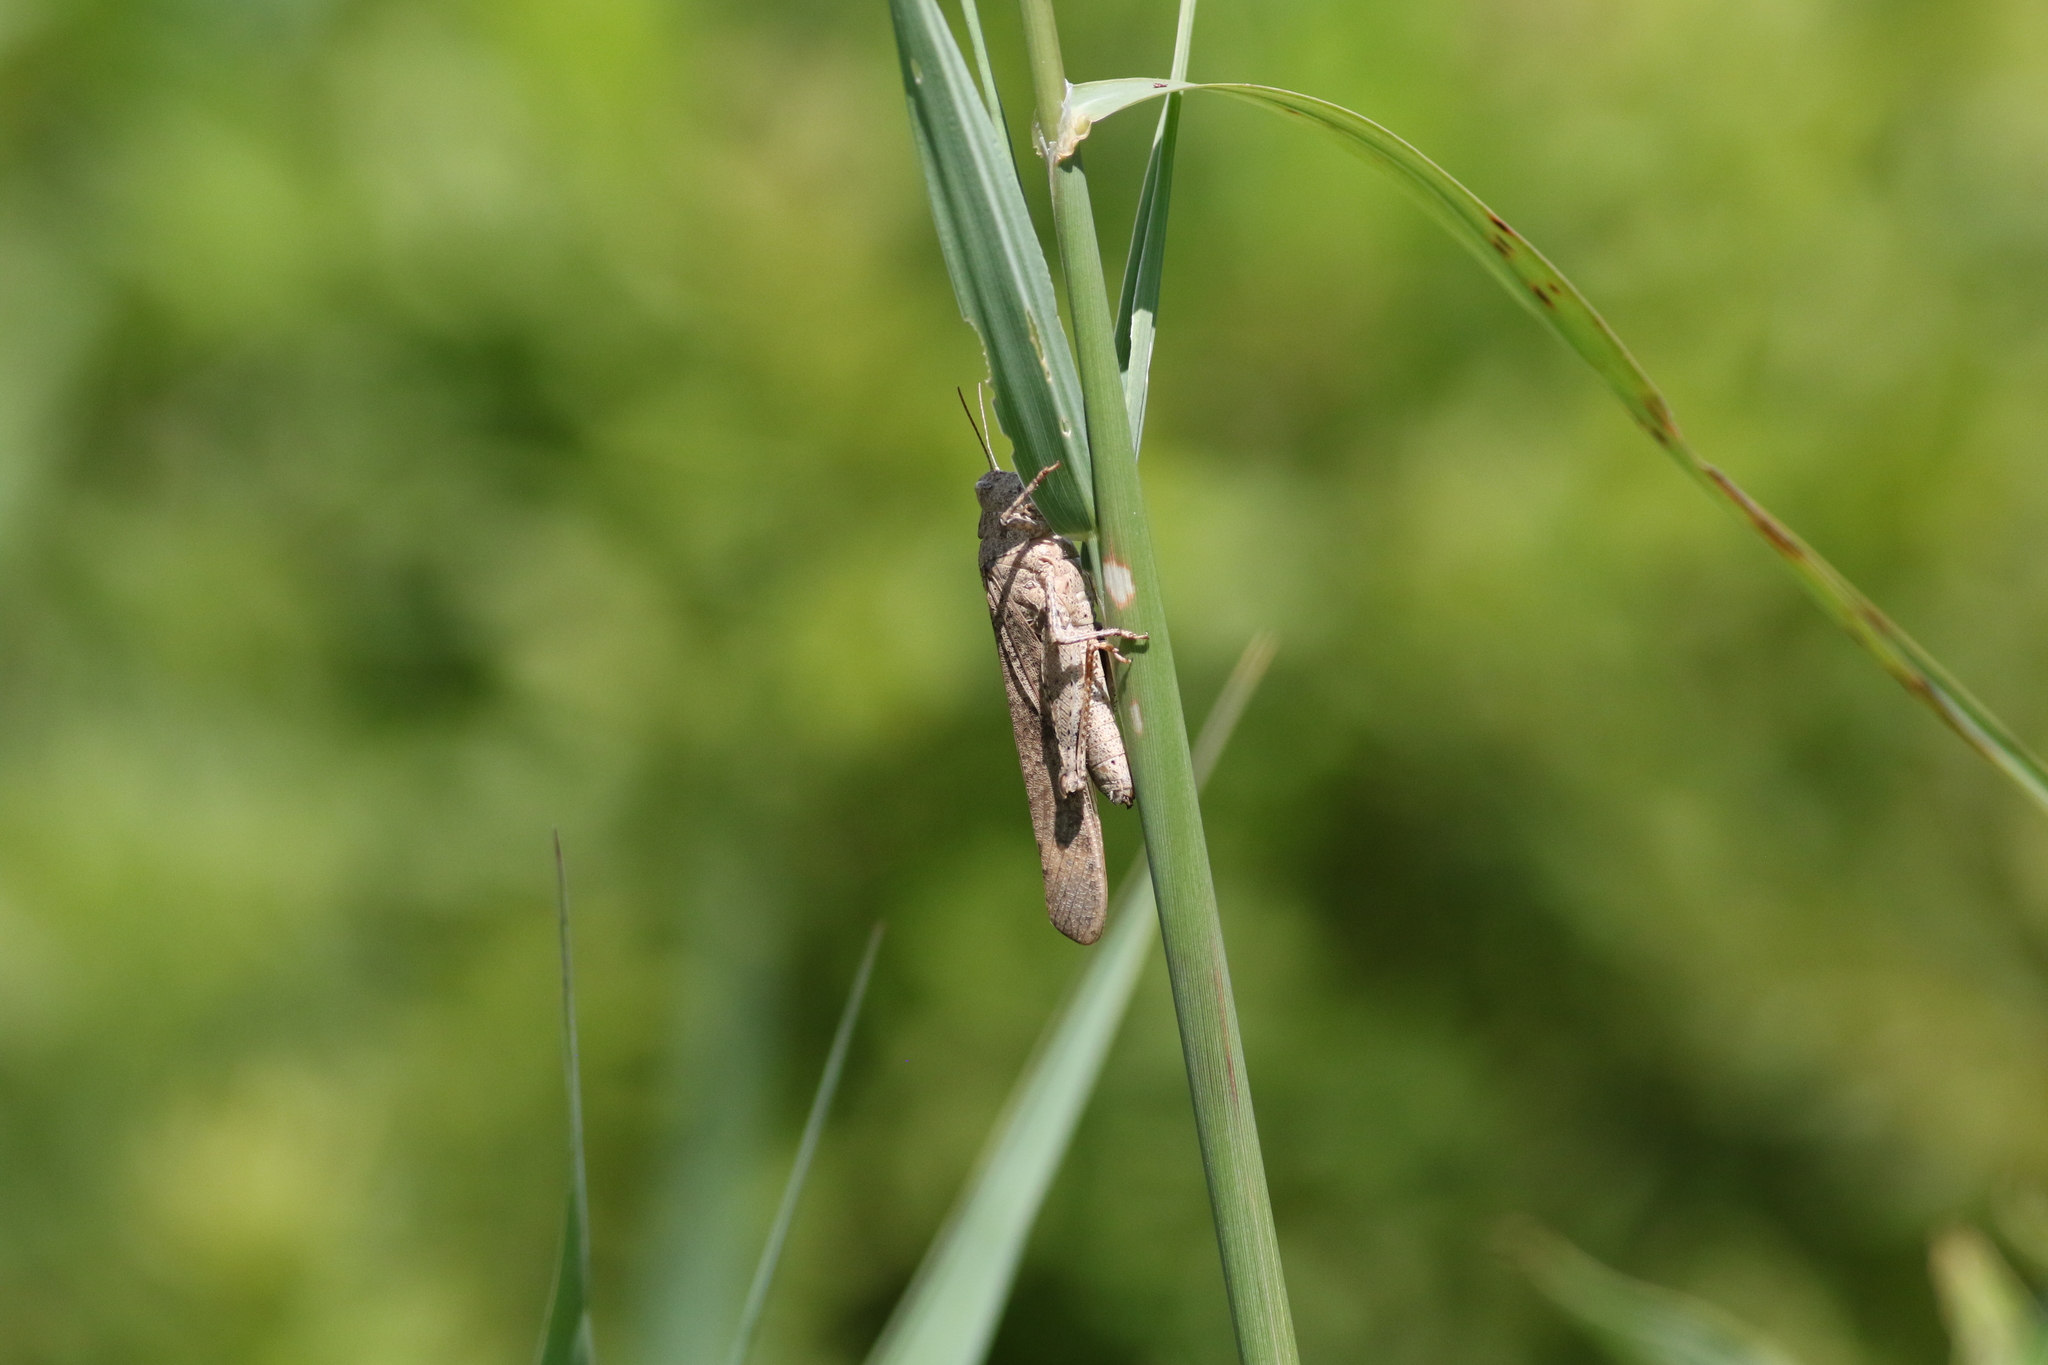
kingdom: Animalia
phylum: Arthropoda
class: Insecta
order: Orthoptera
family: Acrididae
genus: Dissosteira
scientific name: Dissosteira carolina
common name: Carolina grasshopper
